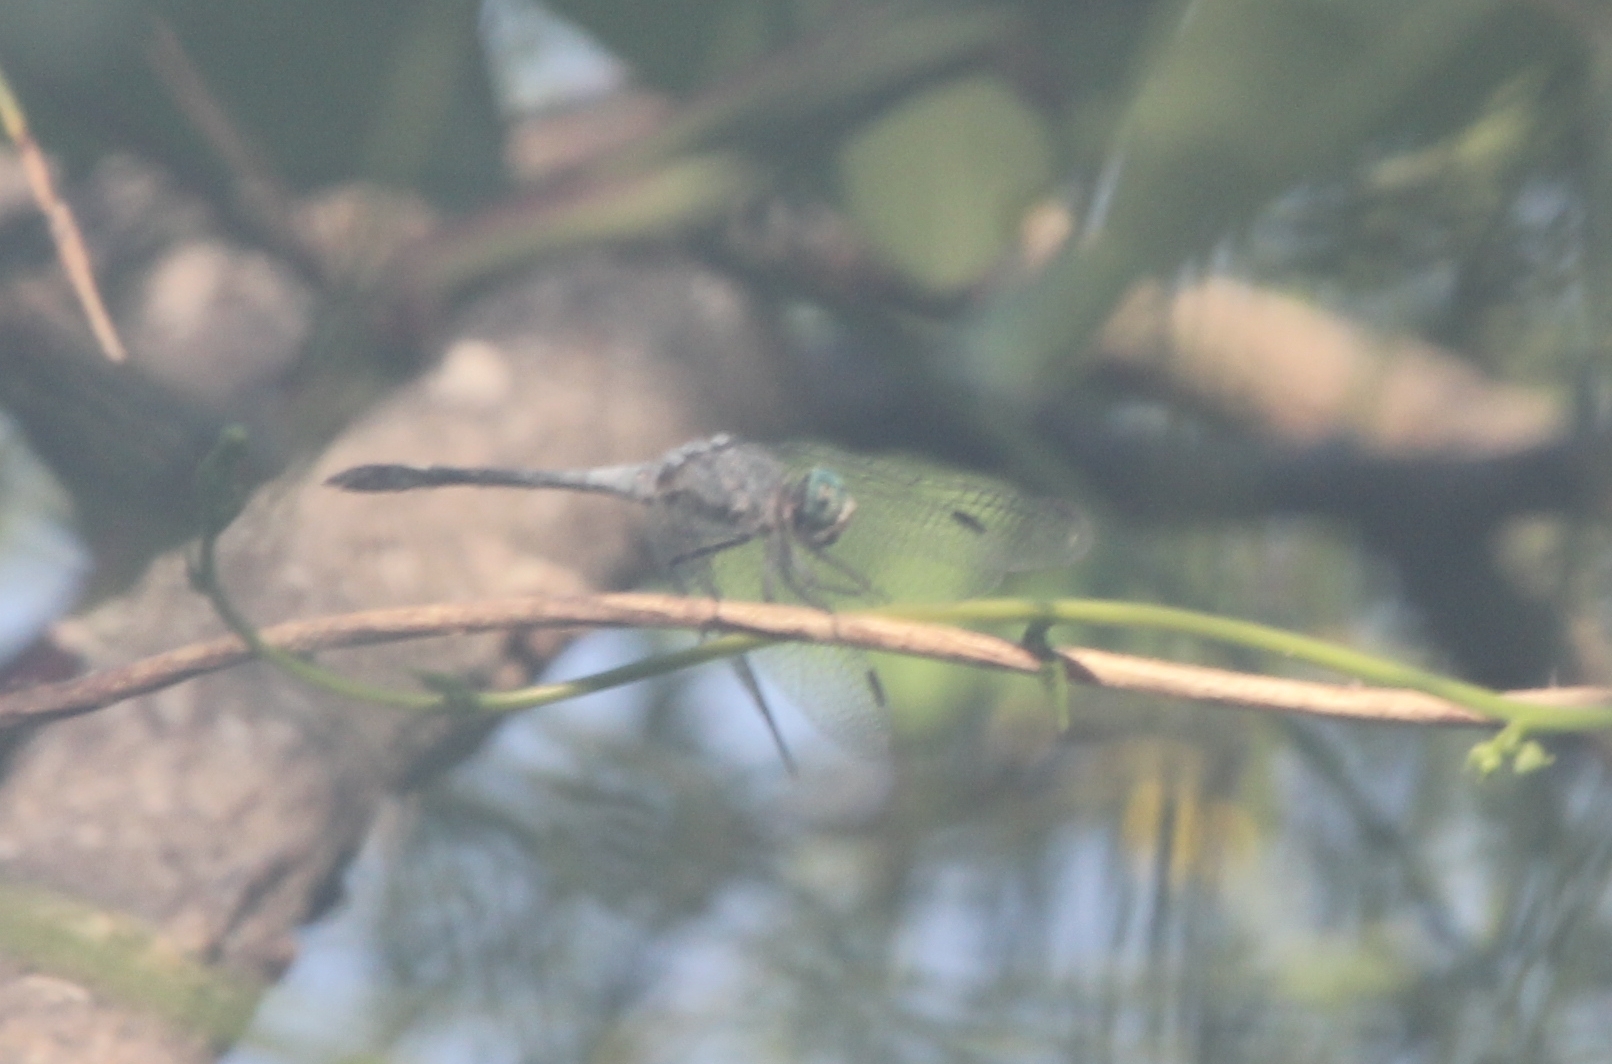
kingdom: Animalia
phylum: Arthropoda
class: Insecta
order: Odonata
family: Libellulidae
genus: Micrathyria
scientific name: Micrathyria aequalis
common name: Spot-tailed dasher
